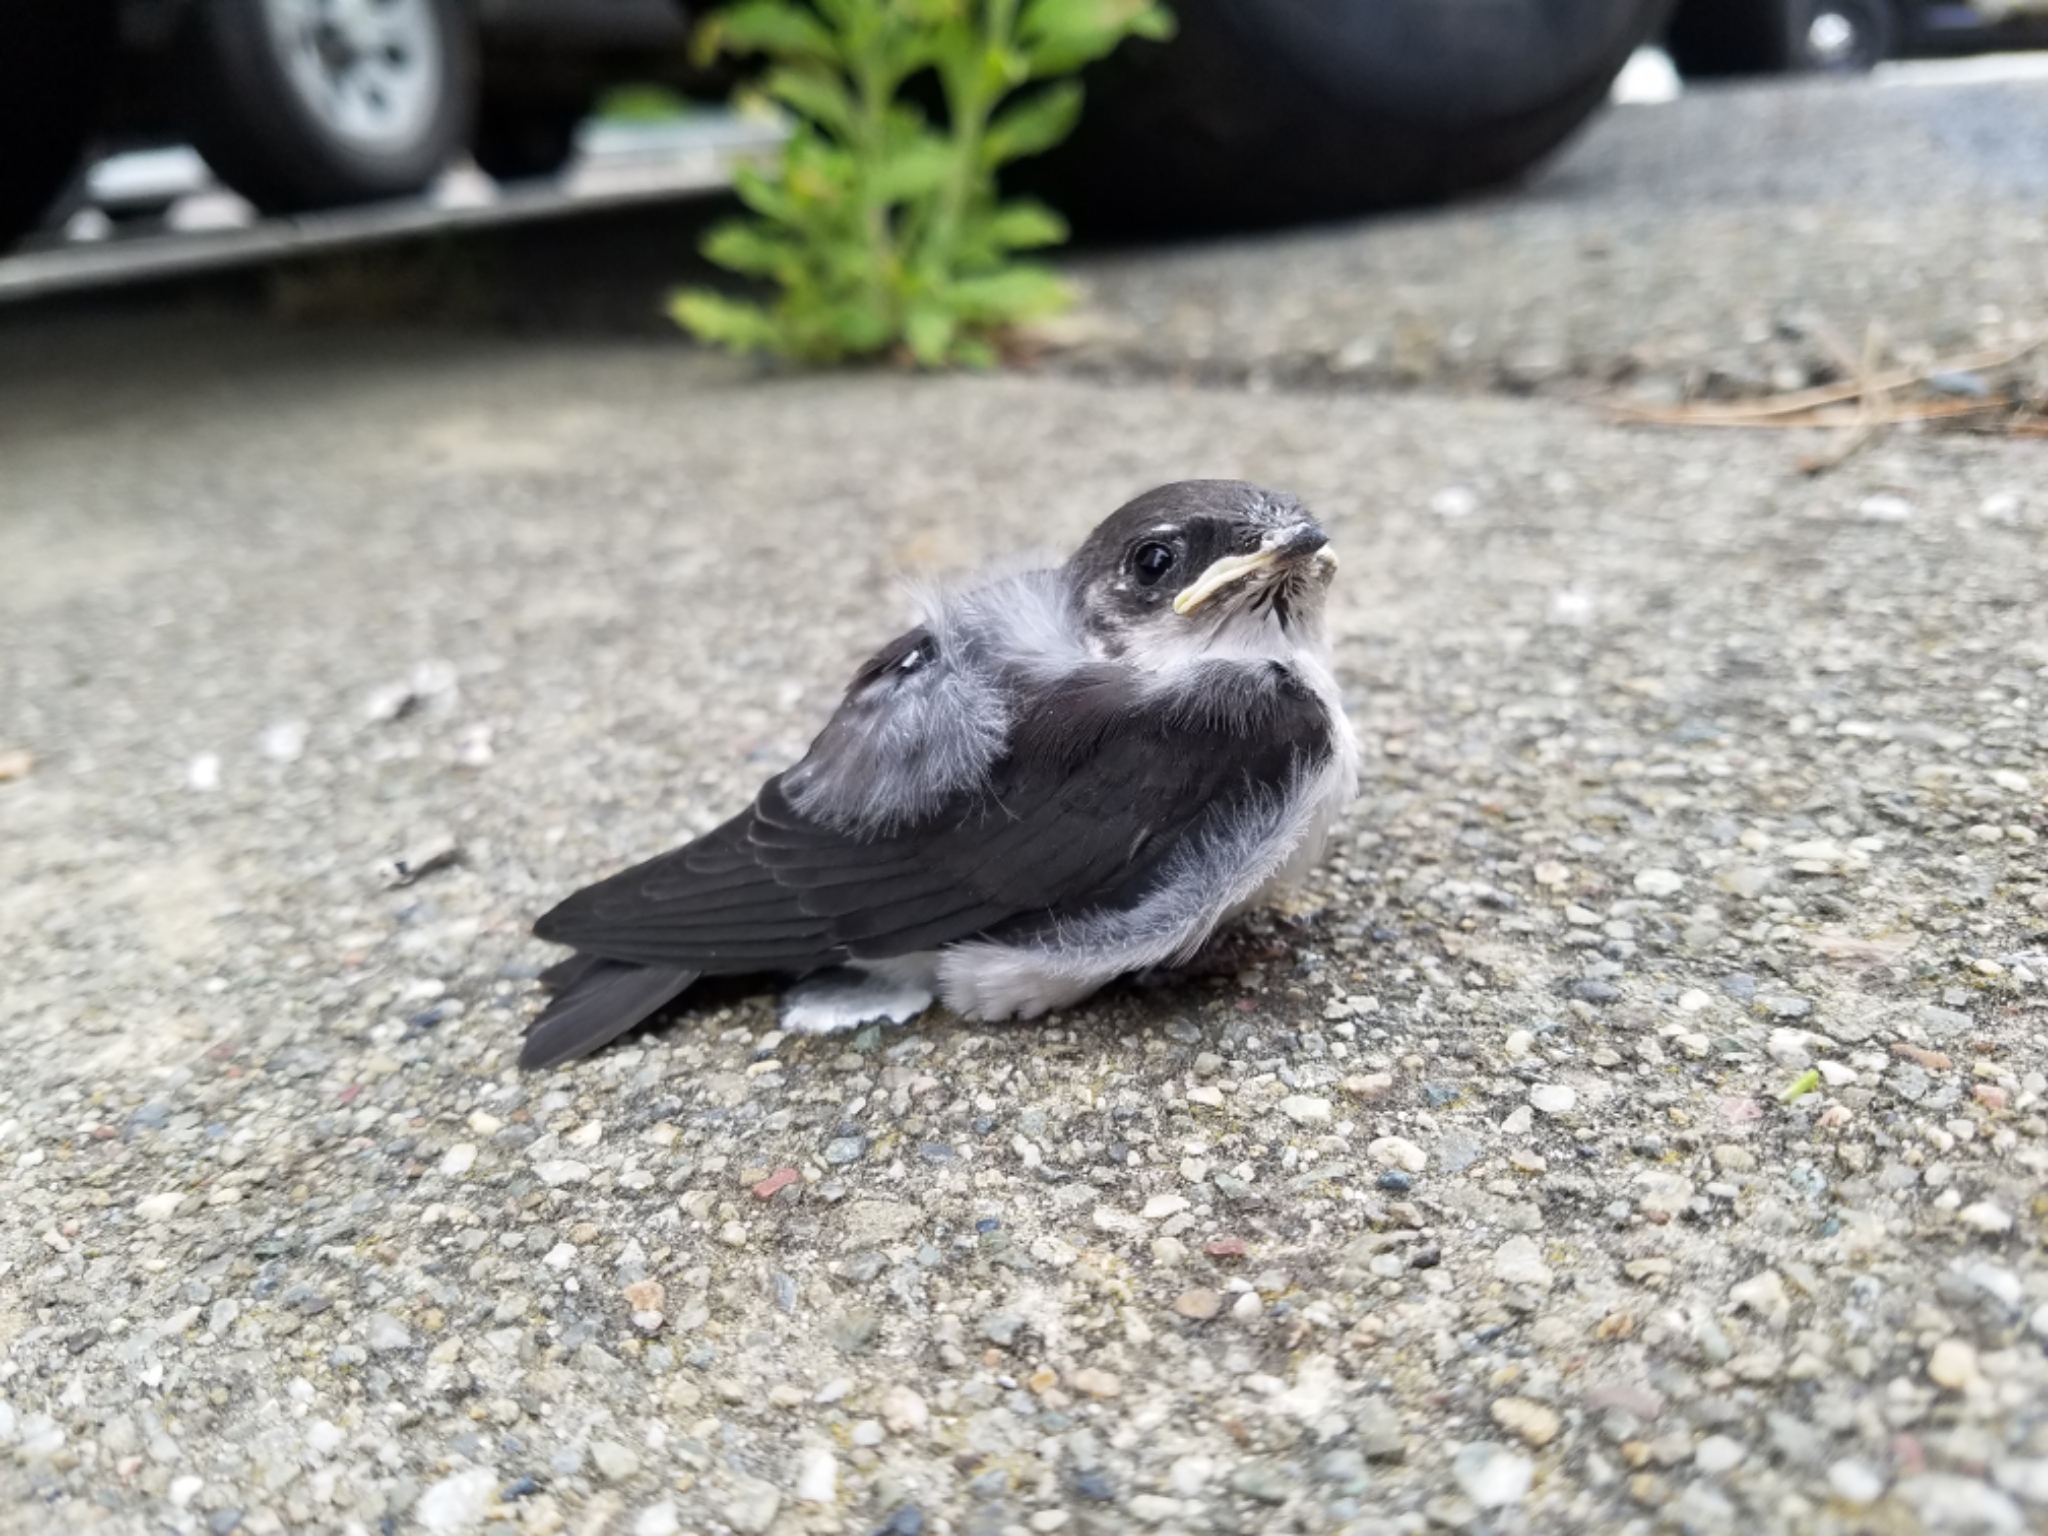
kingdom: Animalia
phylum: Chordata
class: Aves
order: Passeriformes
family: Hirundinidae
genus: Tachycineta
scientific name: Tachycineta bicolor
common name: Tree swallow
